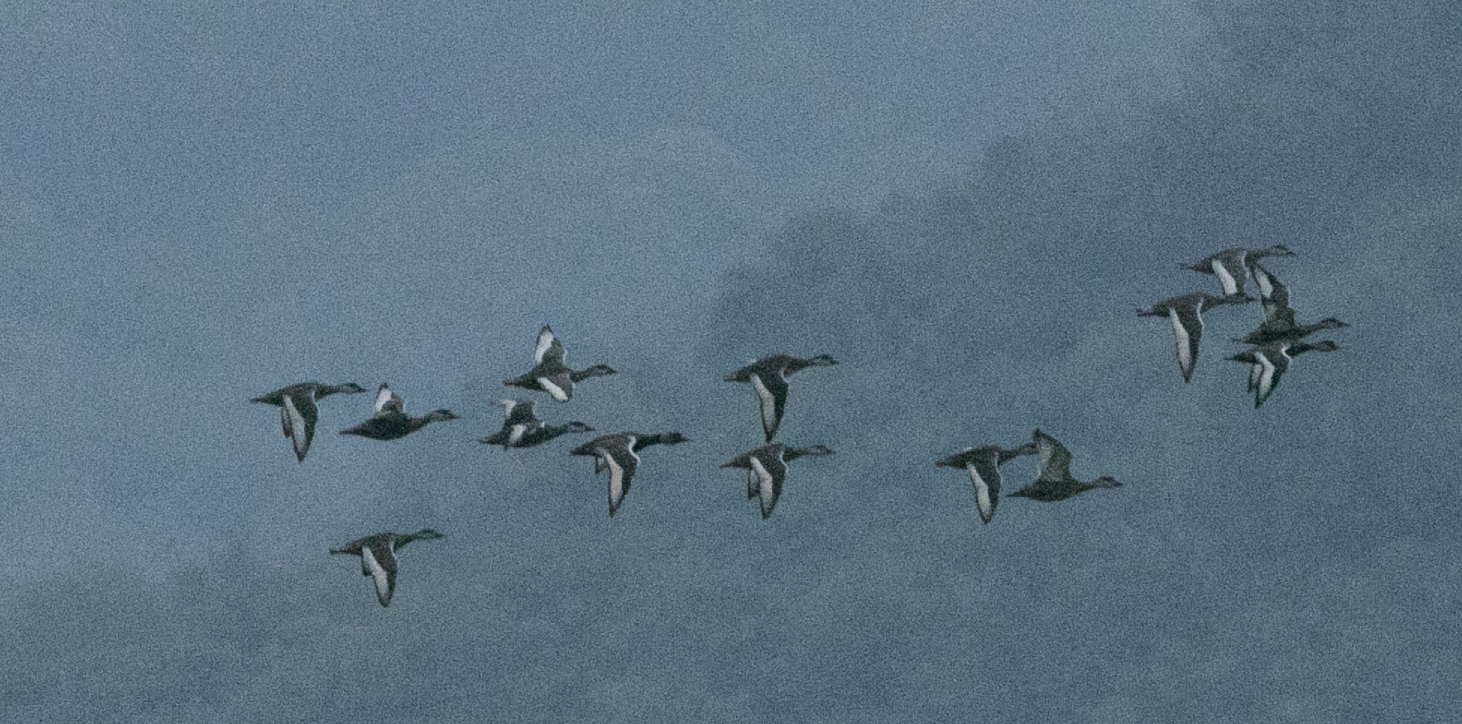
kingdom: Animalia
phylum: Chordata
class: Aves
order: Anseriformes
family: Anatidae
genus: Netta
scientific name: Netta rufina
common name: Red-crested pochard
